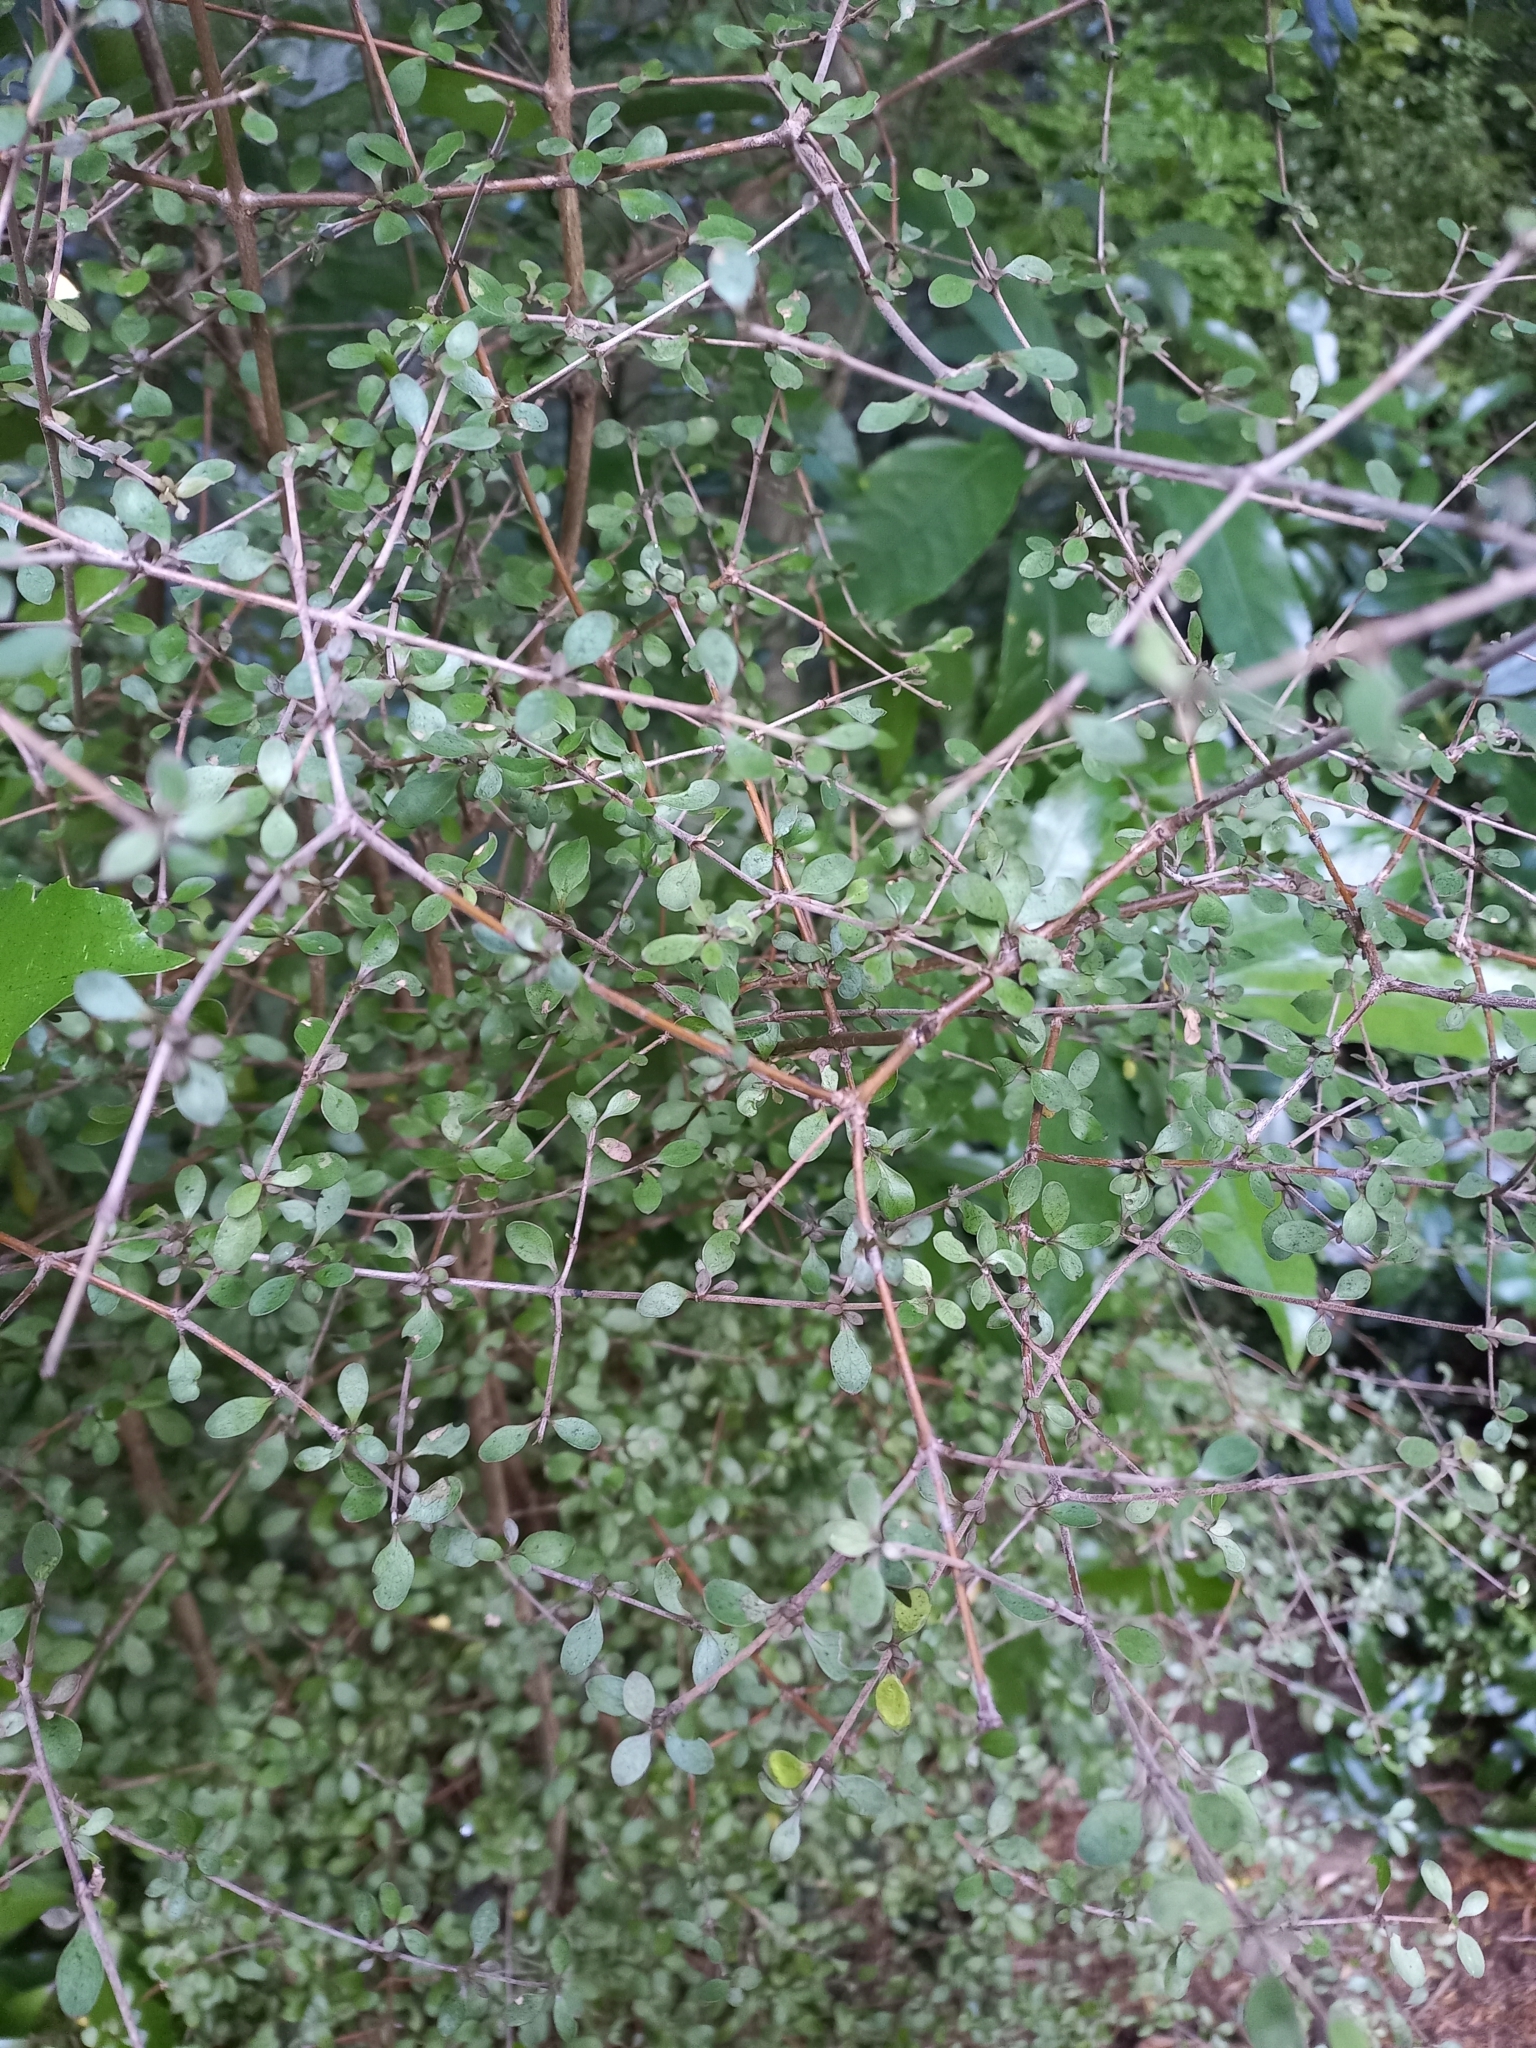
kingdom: Plantae
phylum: Tracheophyta
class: Magnoliopsida
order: Gentianales
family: Rubiaceae
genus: Coprosma
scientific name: Coprosma rigida
